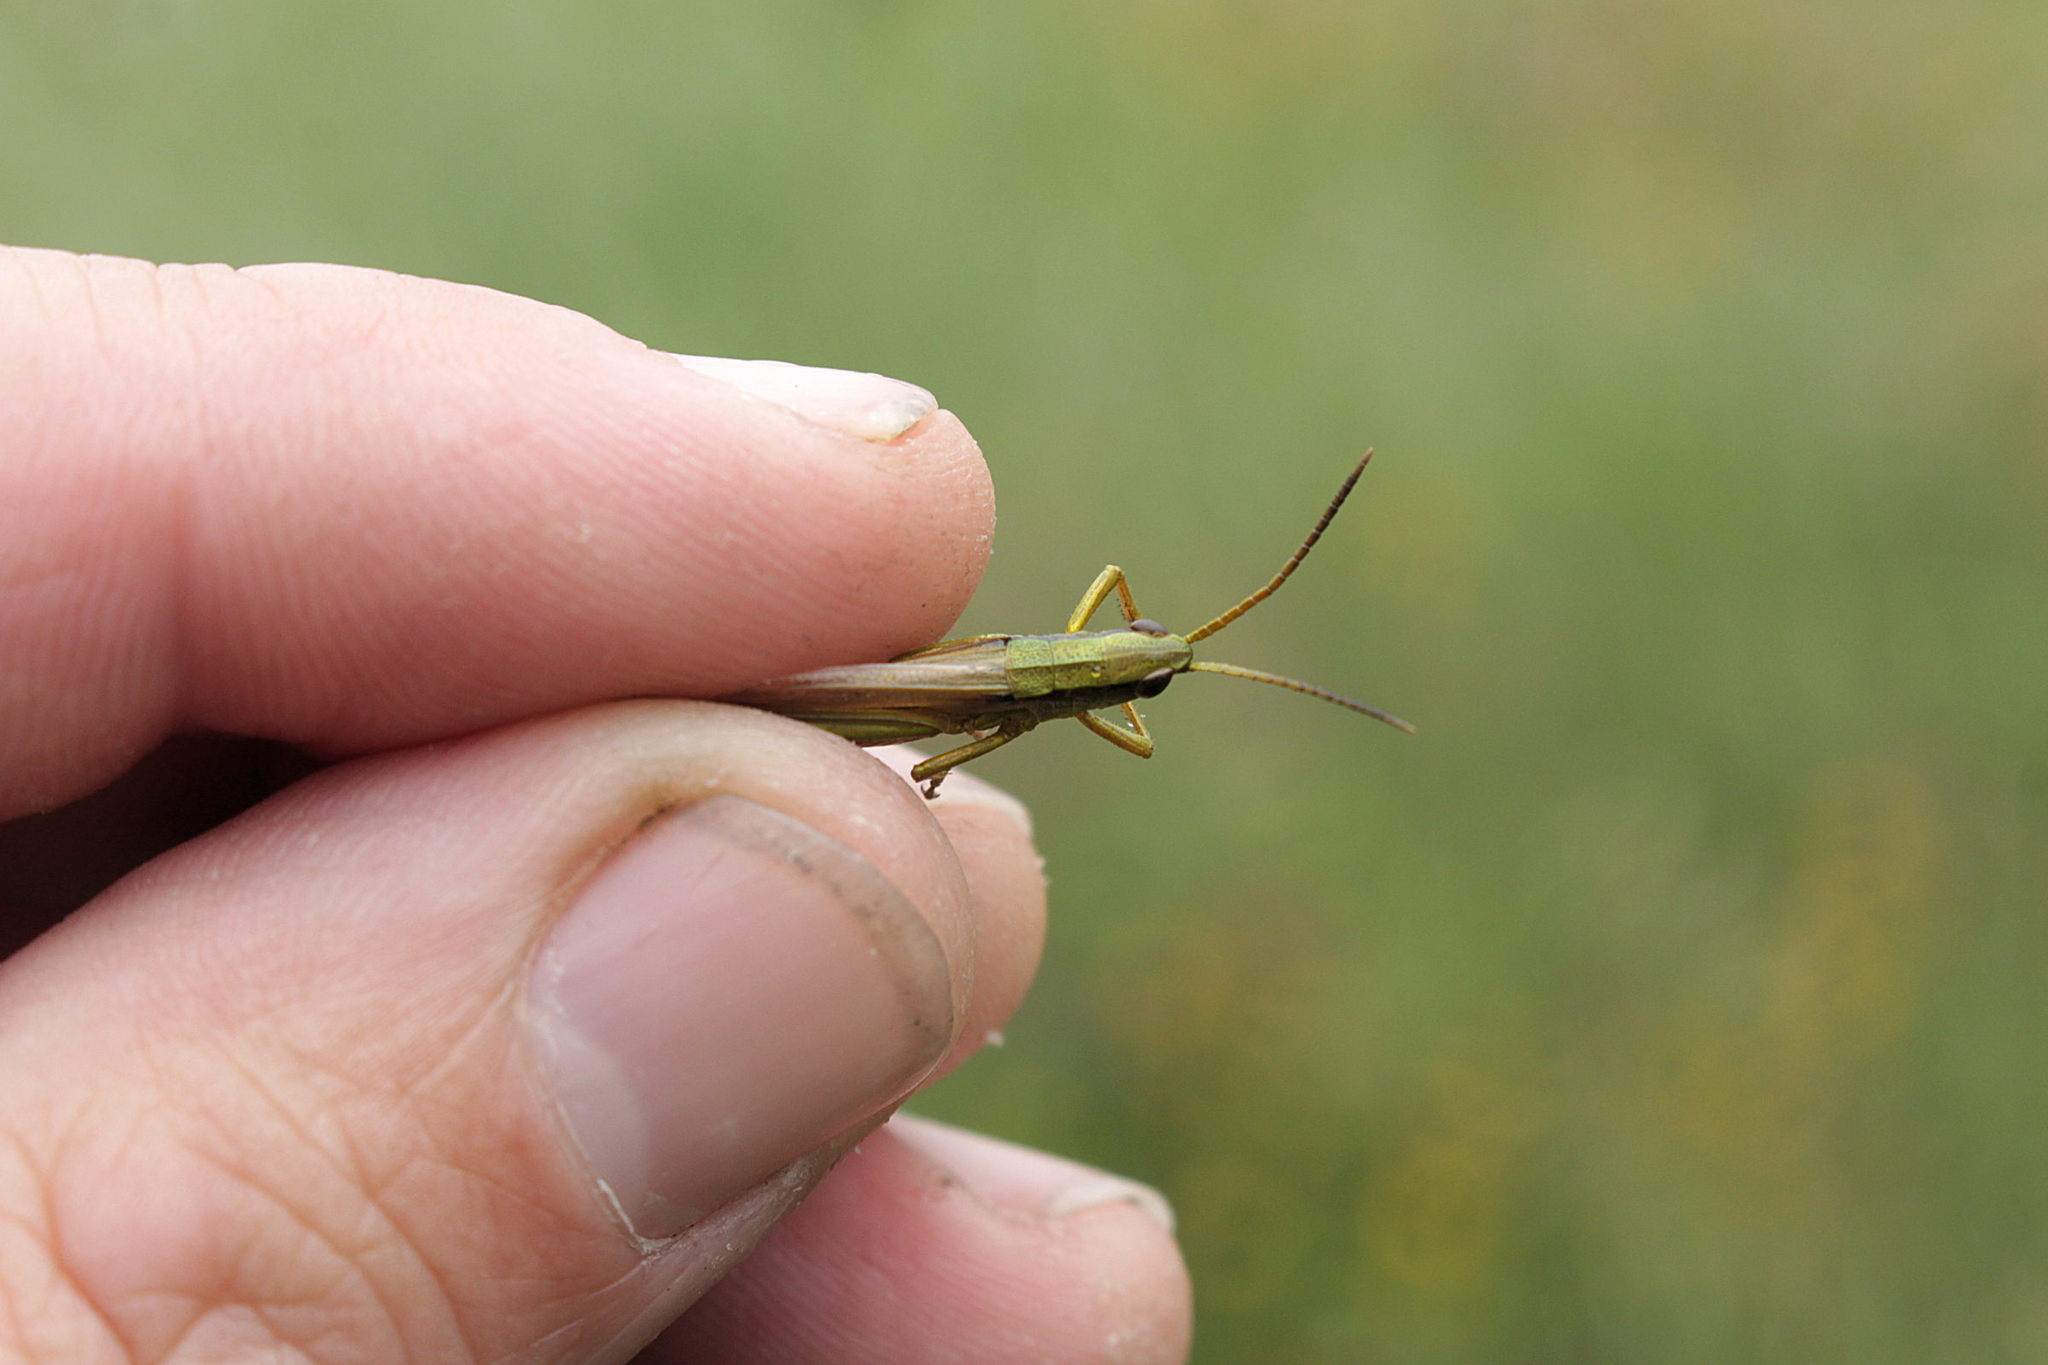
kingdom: Animalia
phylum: Arthropoda
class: Insecta
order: Orthoptera
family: Acrididae
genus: Chrysochraon
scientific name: Chrysochraon dispar
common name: Large gold grasshopper
